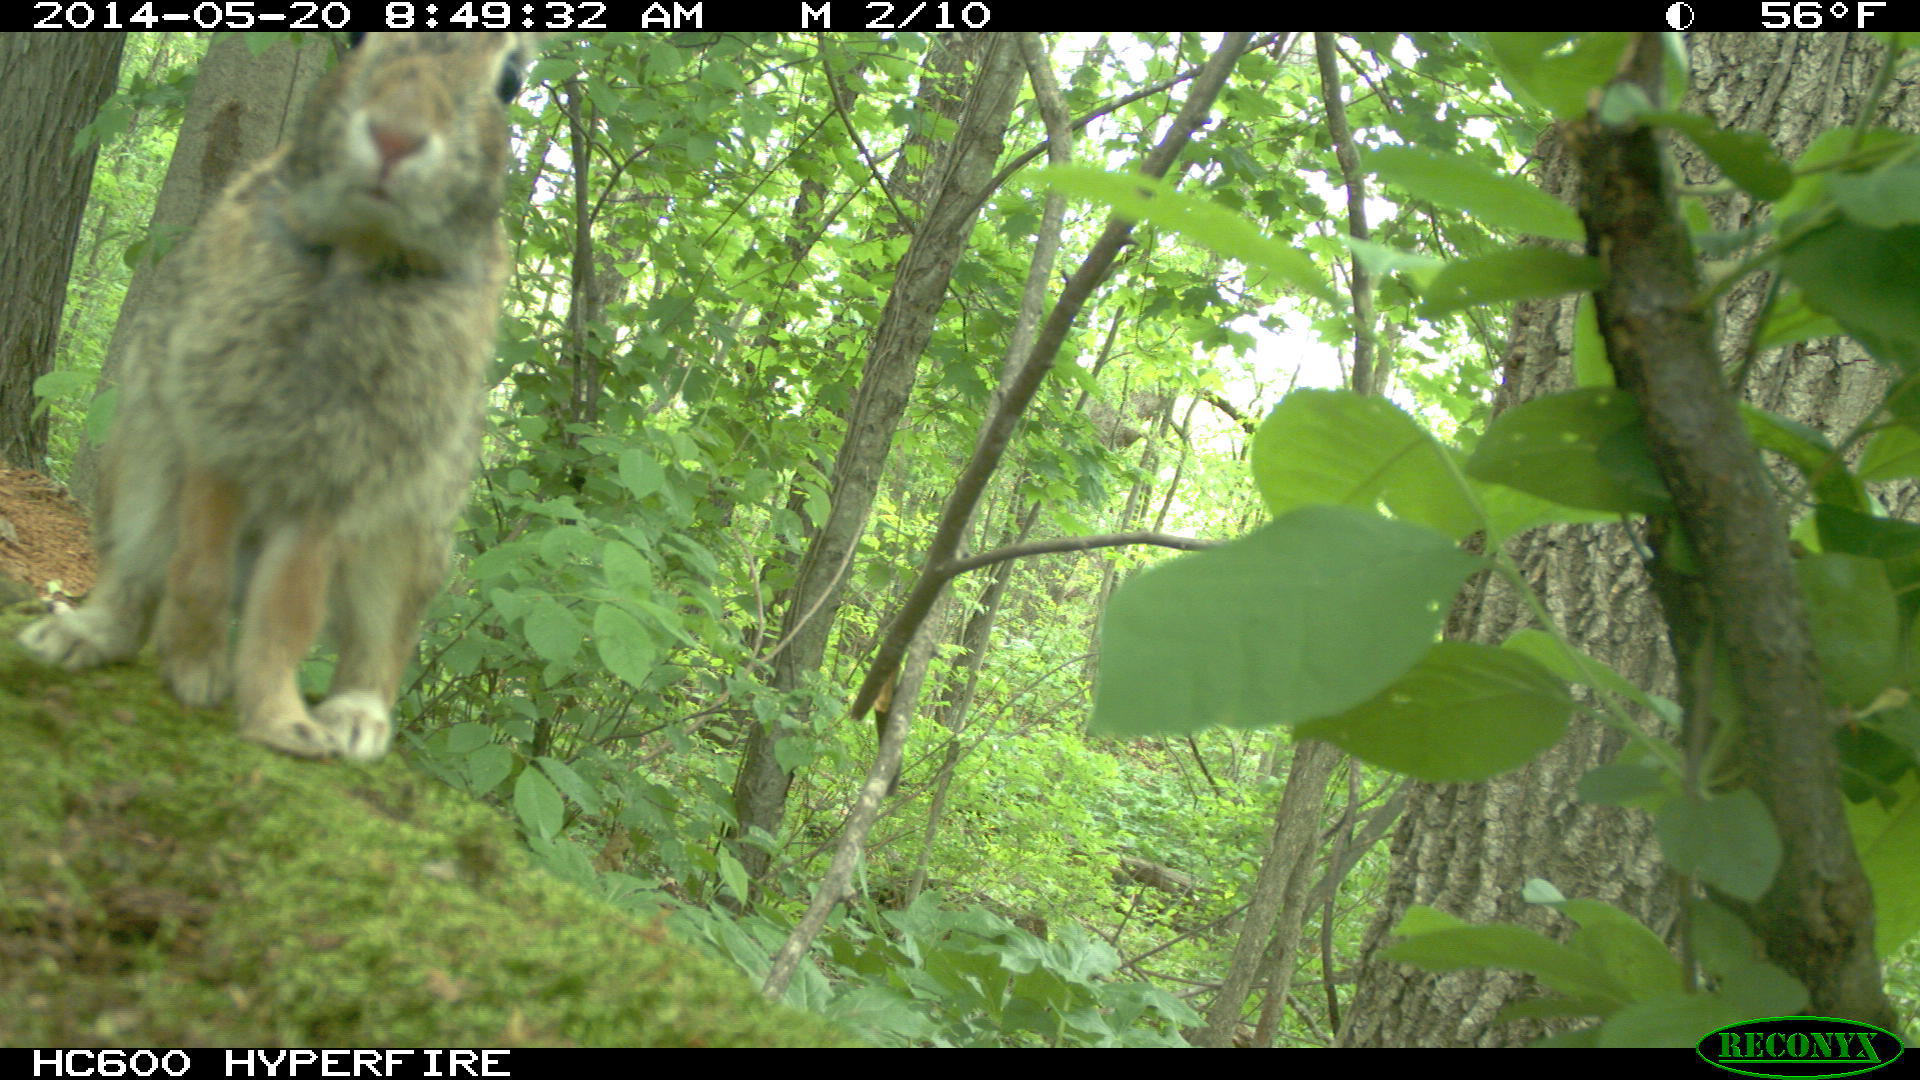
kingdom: Animalia
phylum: Chordata
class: Mammalia
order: Lagomorpha
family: Leporidae
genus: Sylvilagus
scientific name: Sylvilagus floridanus
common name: Eastern cottontail
